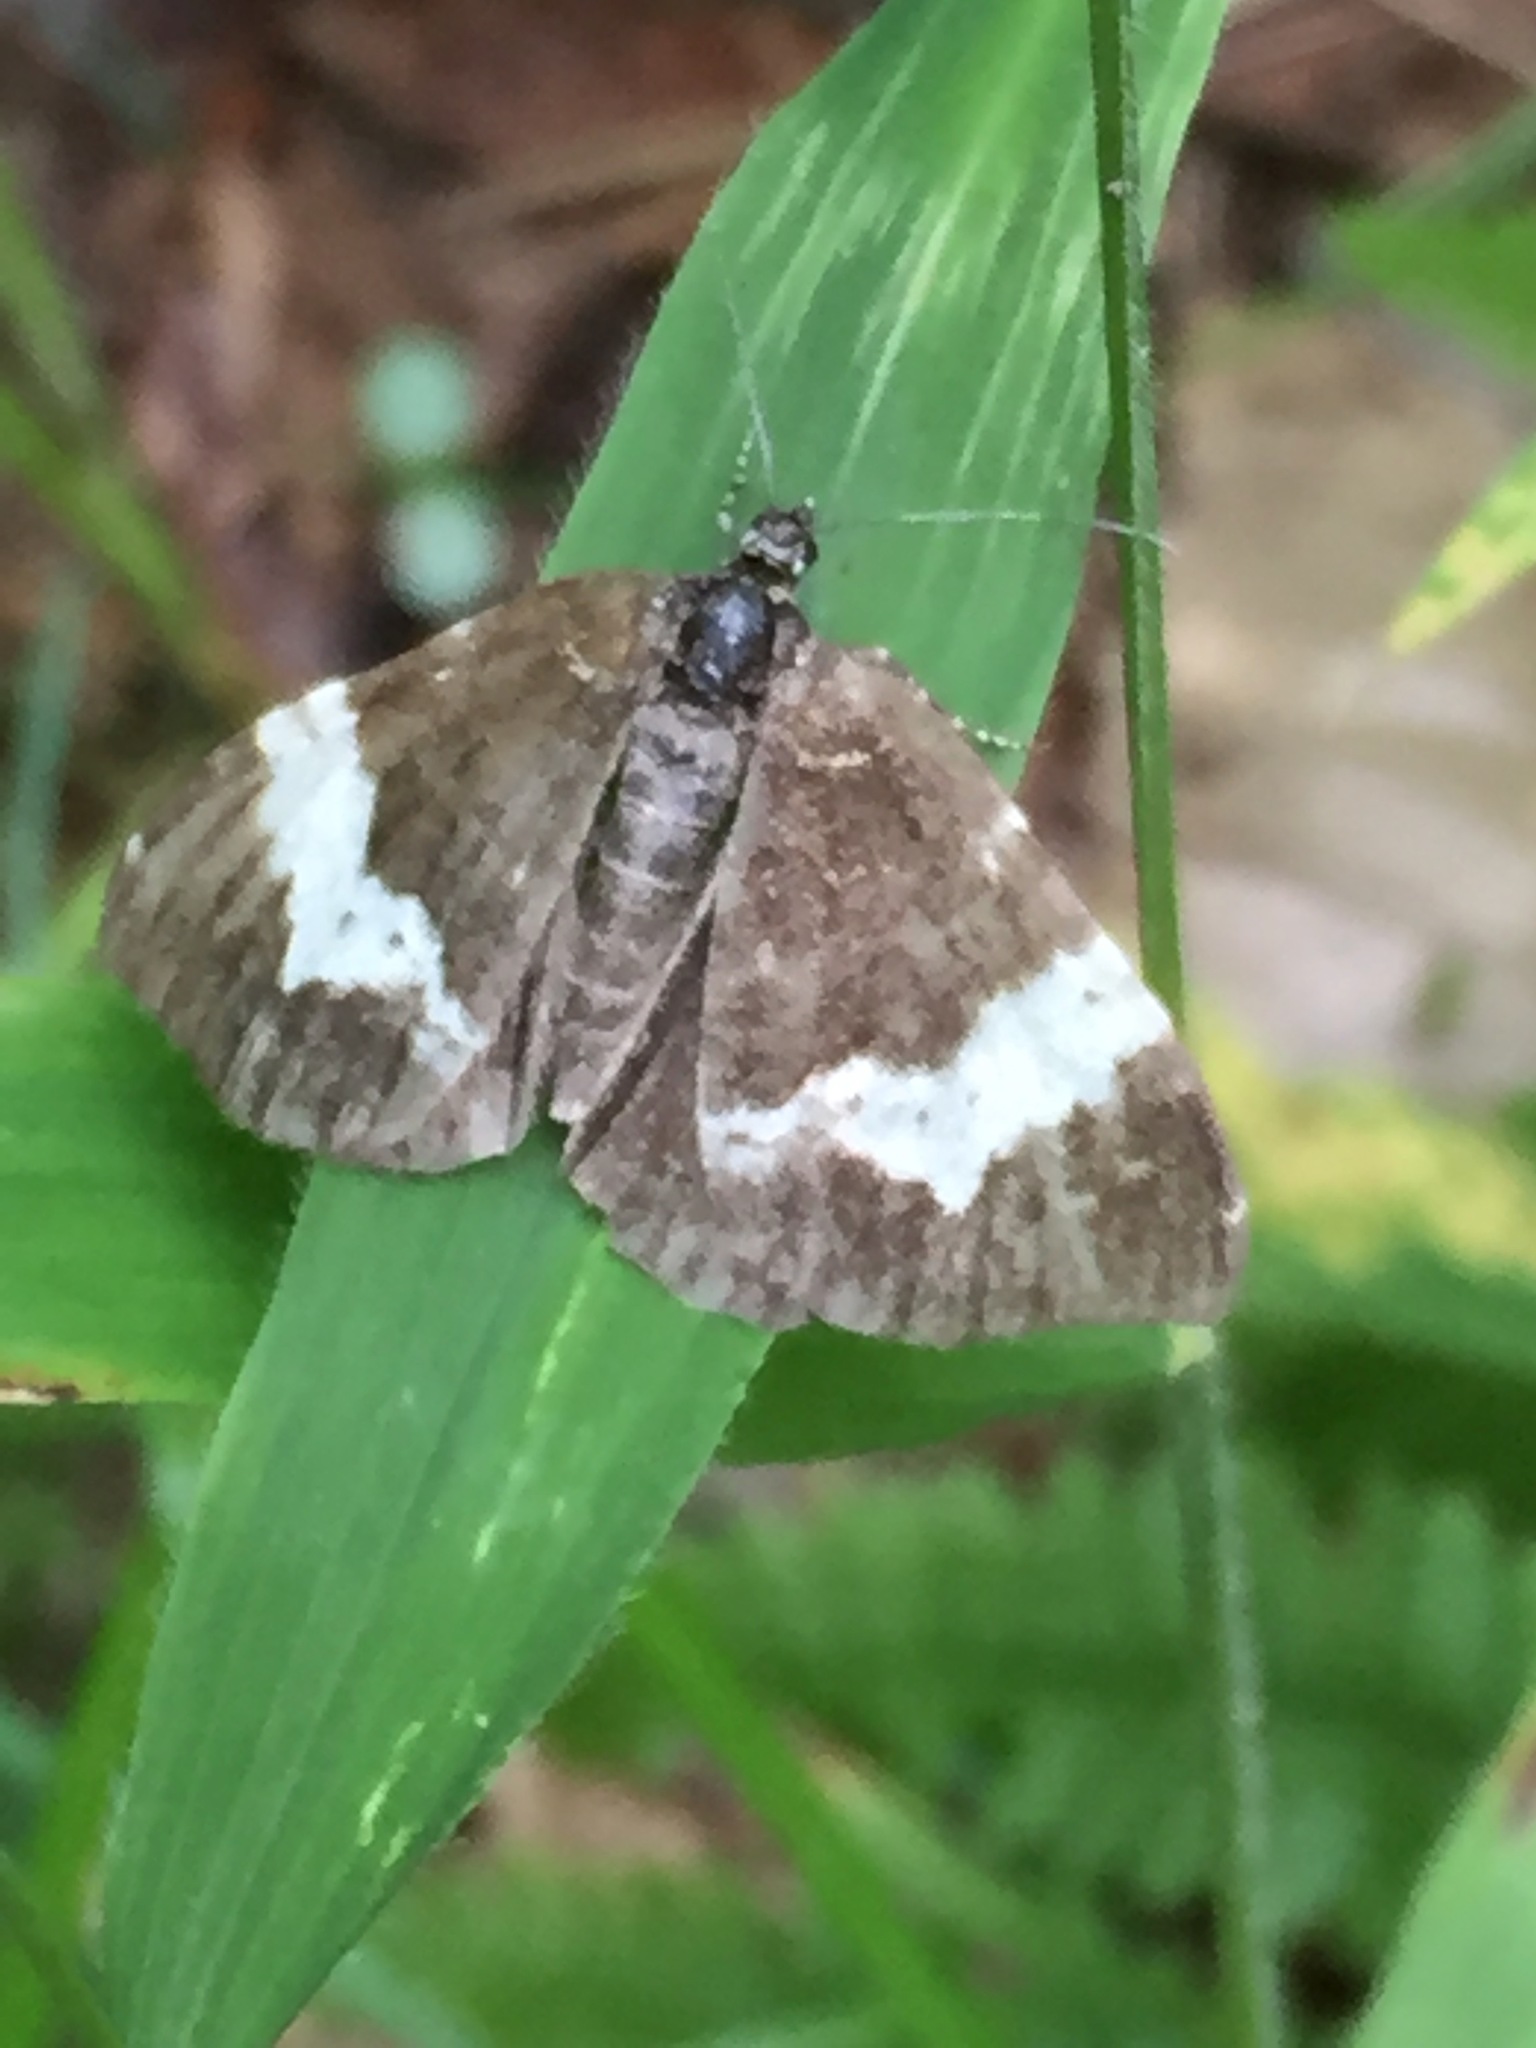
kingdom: Animalia
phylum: Arthropoda
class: Insecta
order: Lepidoptera
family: Geometridae
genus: Rheumaptera
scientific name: Rheumaptera
